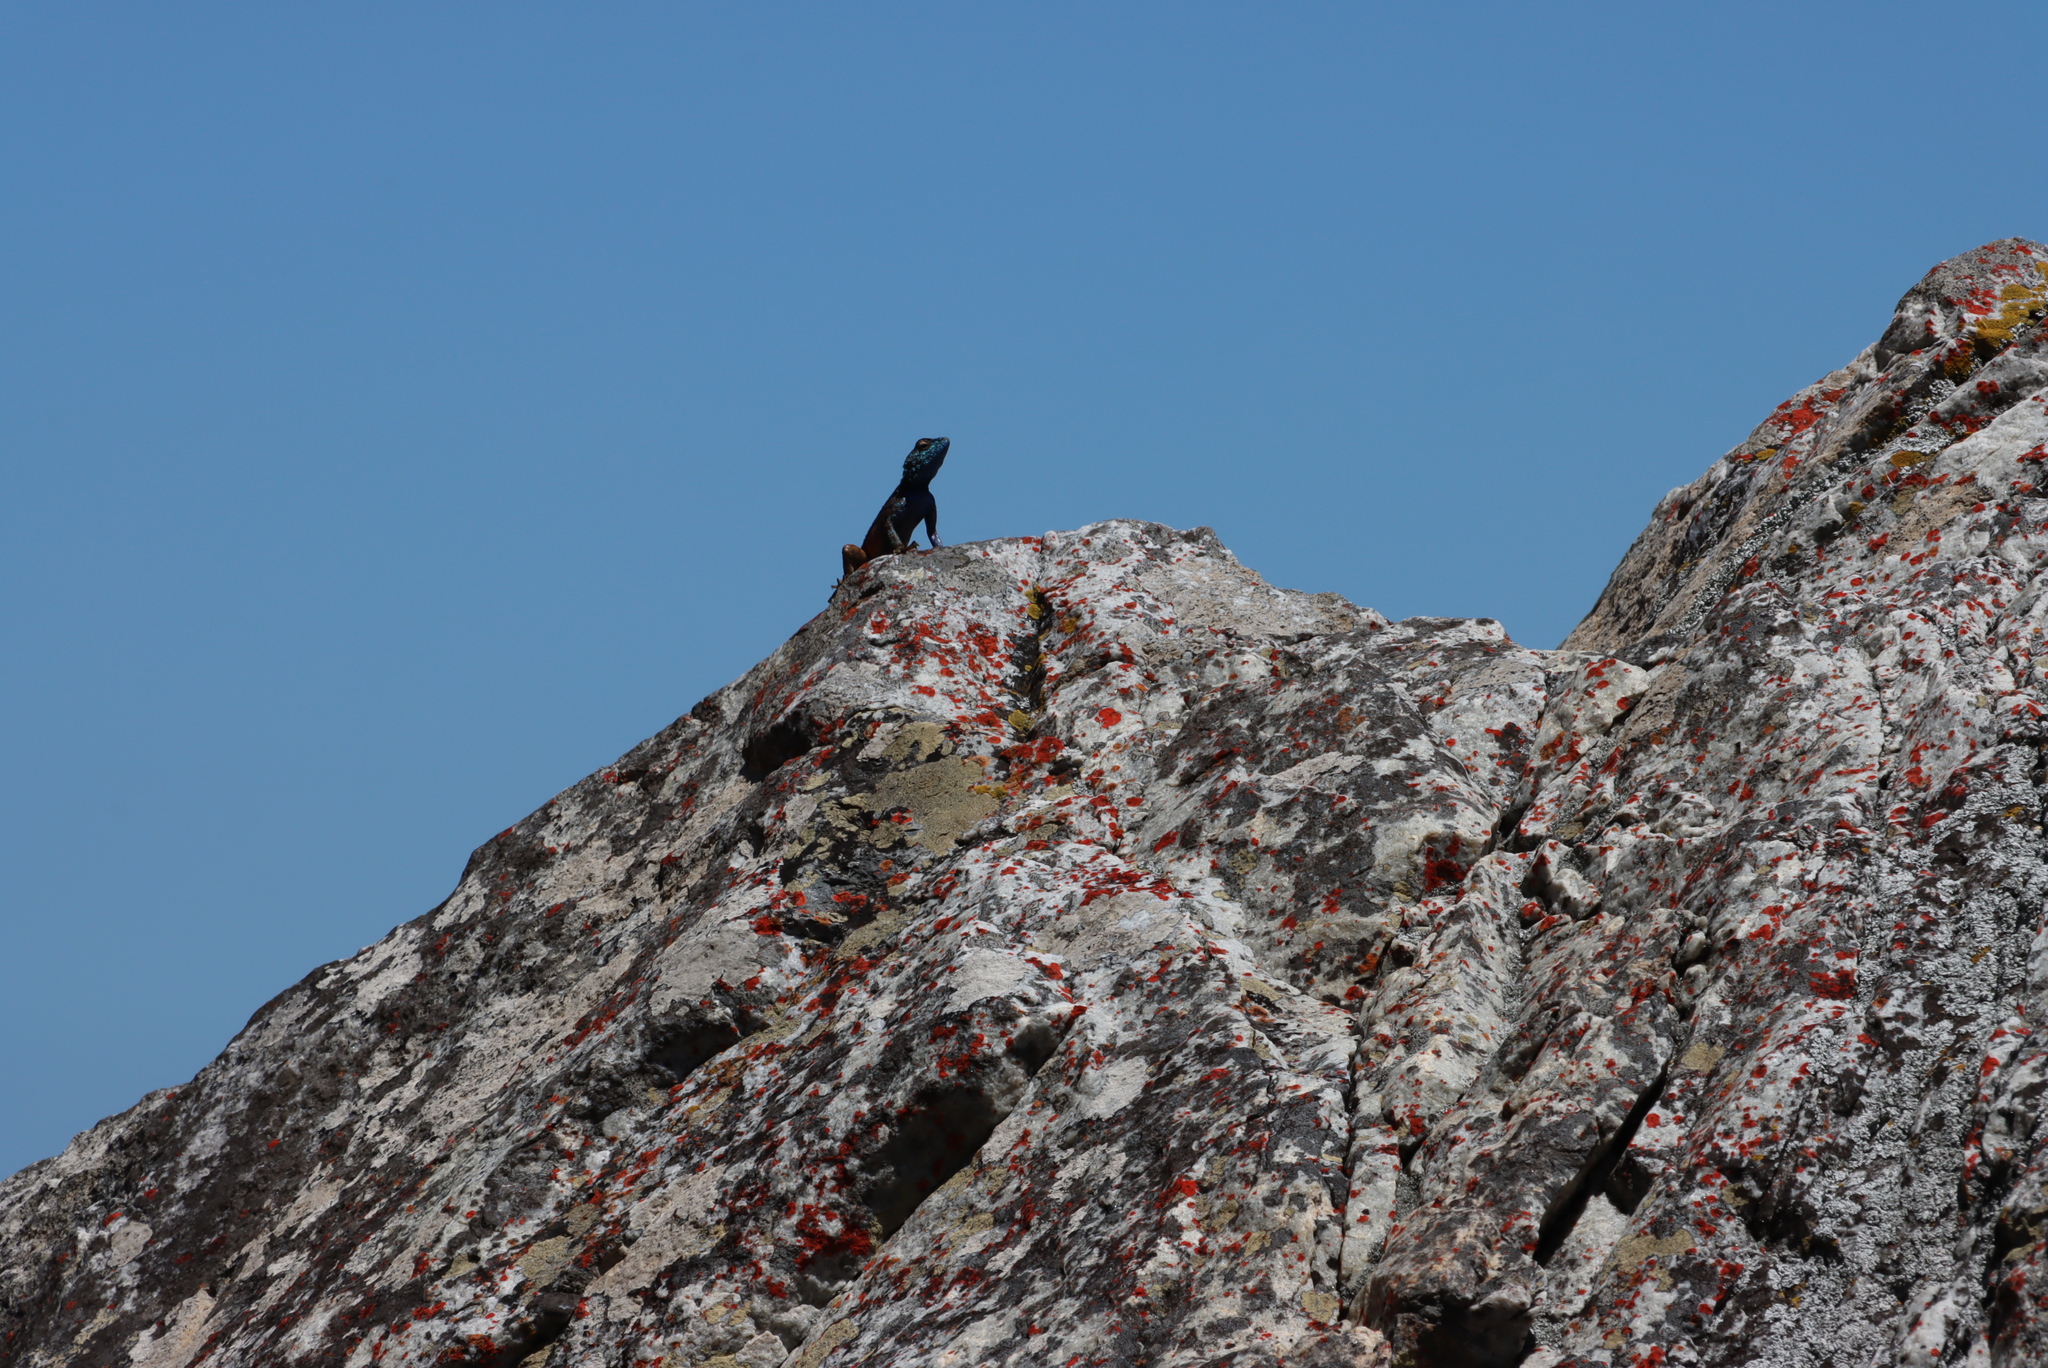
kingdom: Animalia
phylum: Chordata
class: Squamata
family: Agamidae
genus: Agama
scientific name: Agama atra
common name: Southern african rock agama
